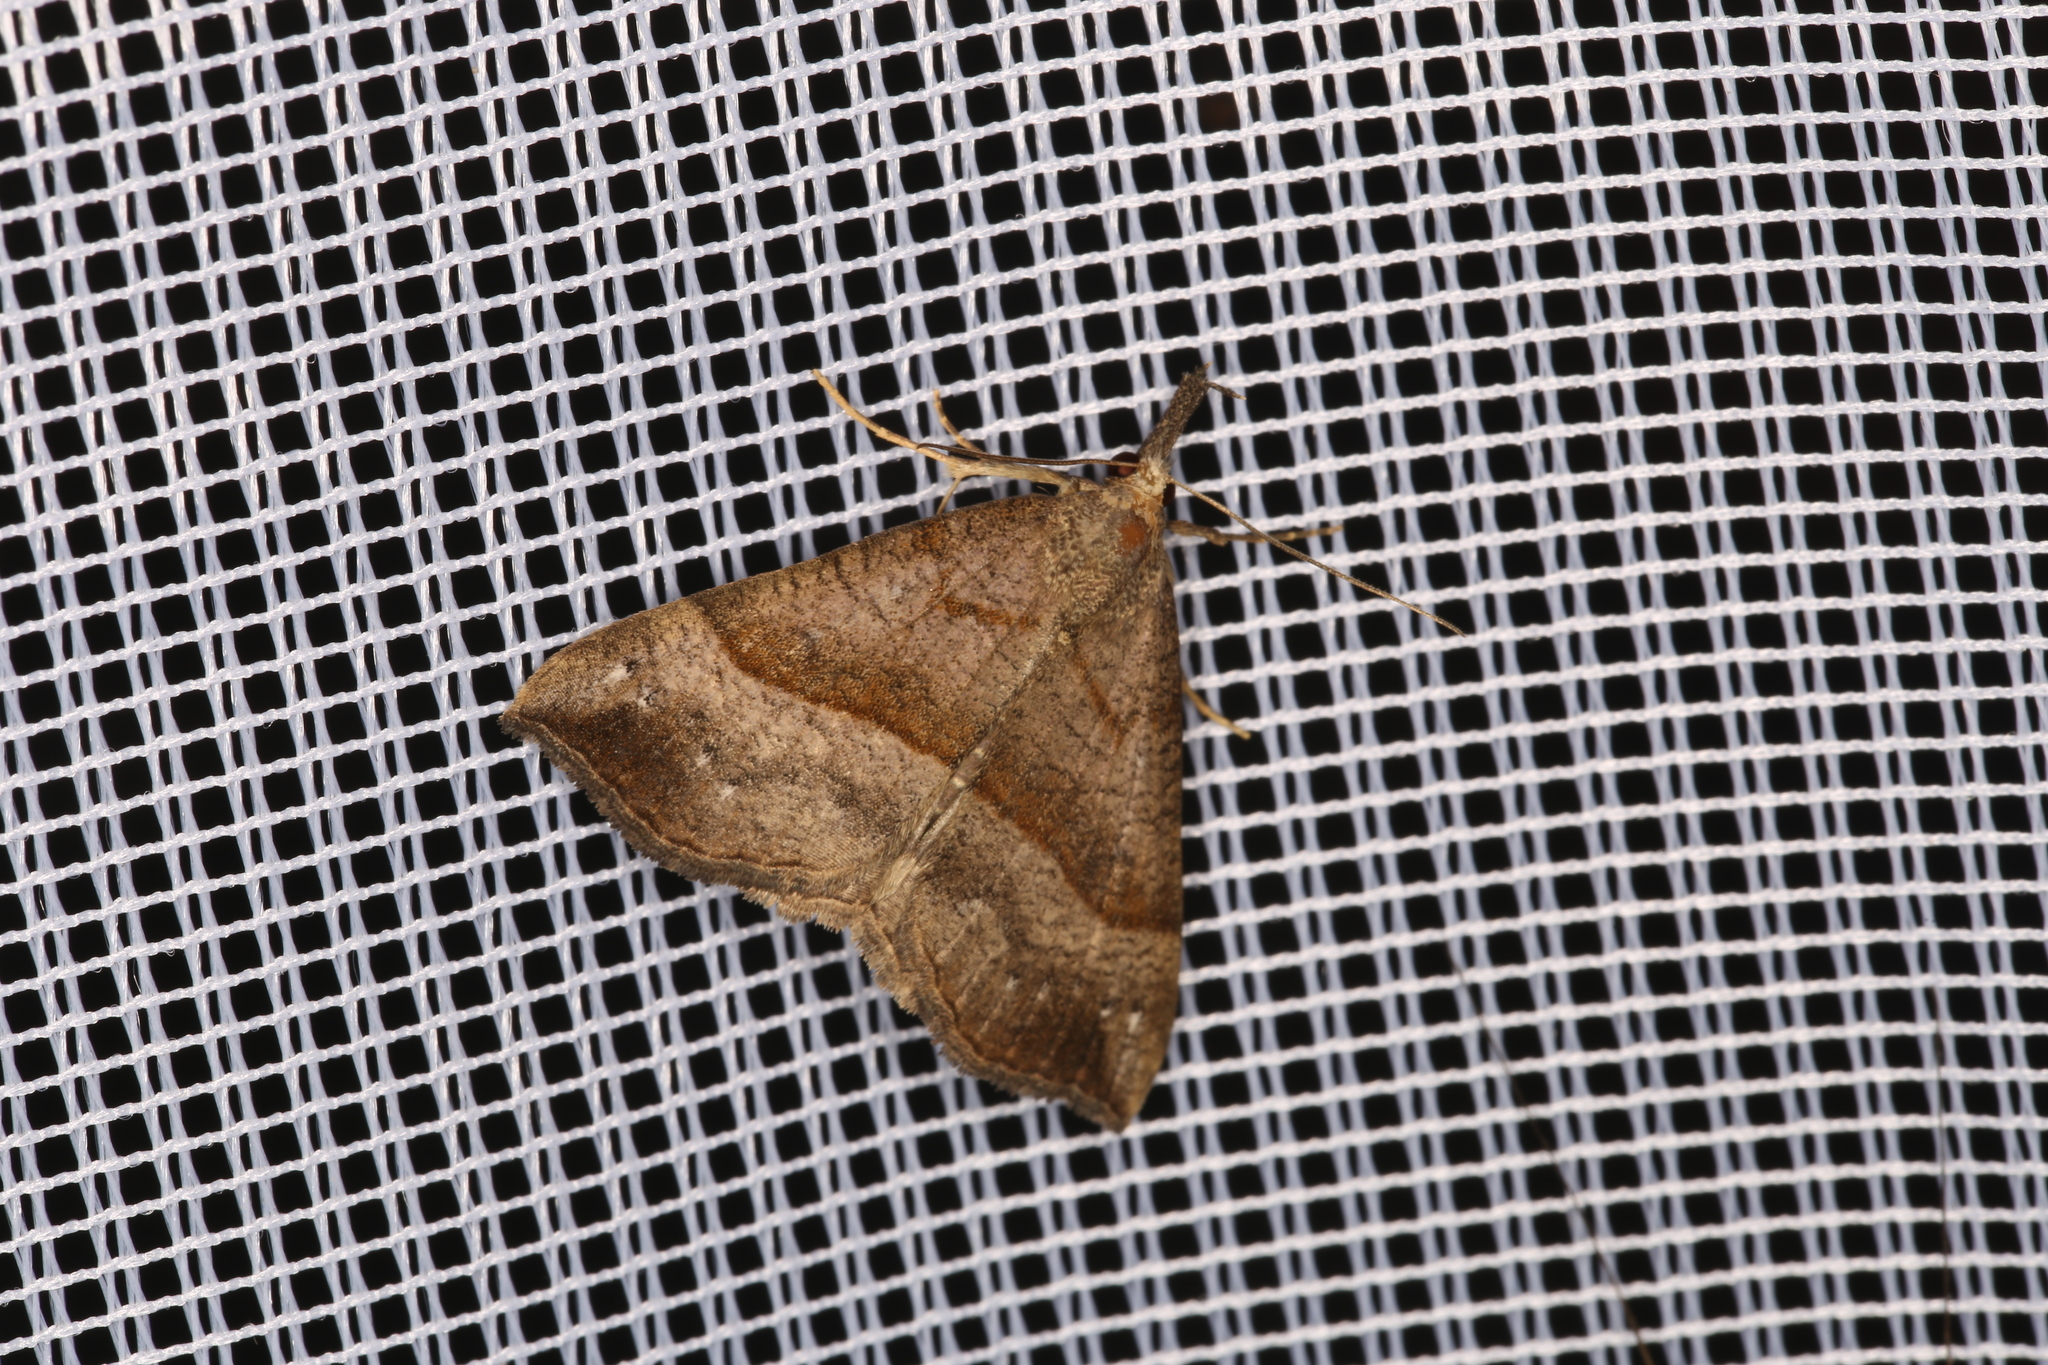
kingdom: Animalia
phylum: Arthropoda
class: Insecta
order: Lepidoptera
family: Erebidae
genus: Hypena
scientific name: Hypena proboscidalis
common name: Snout
